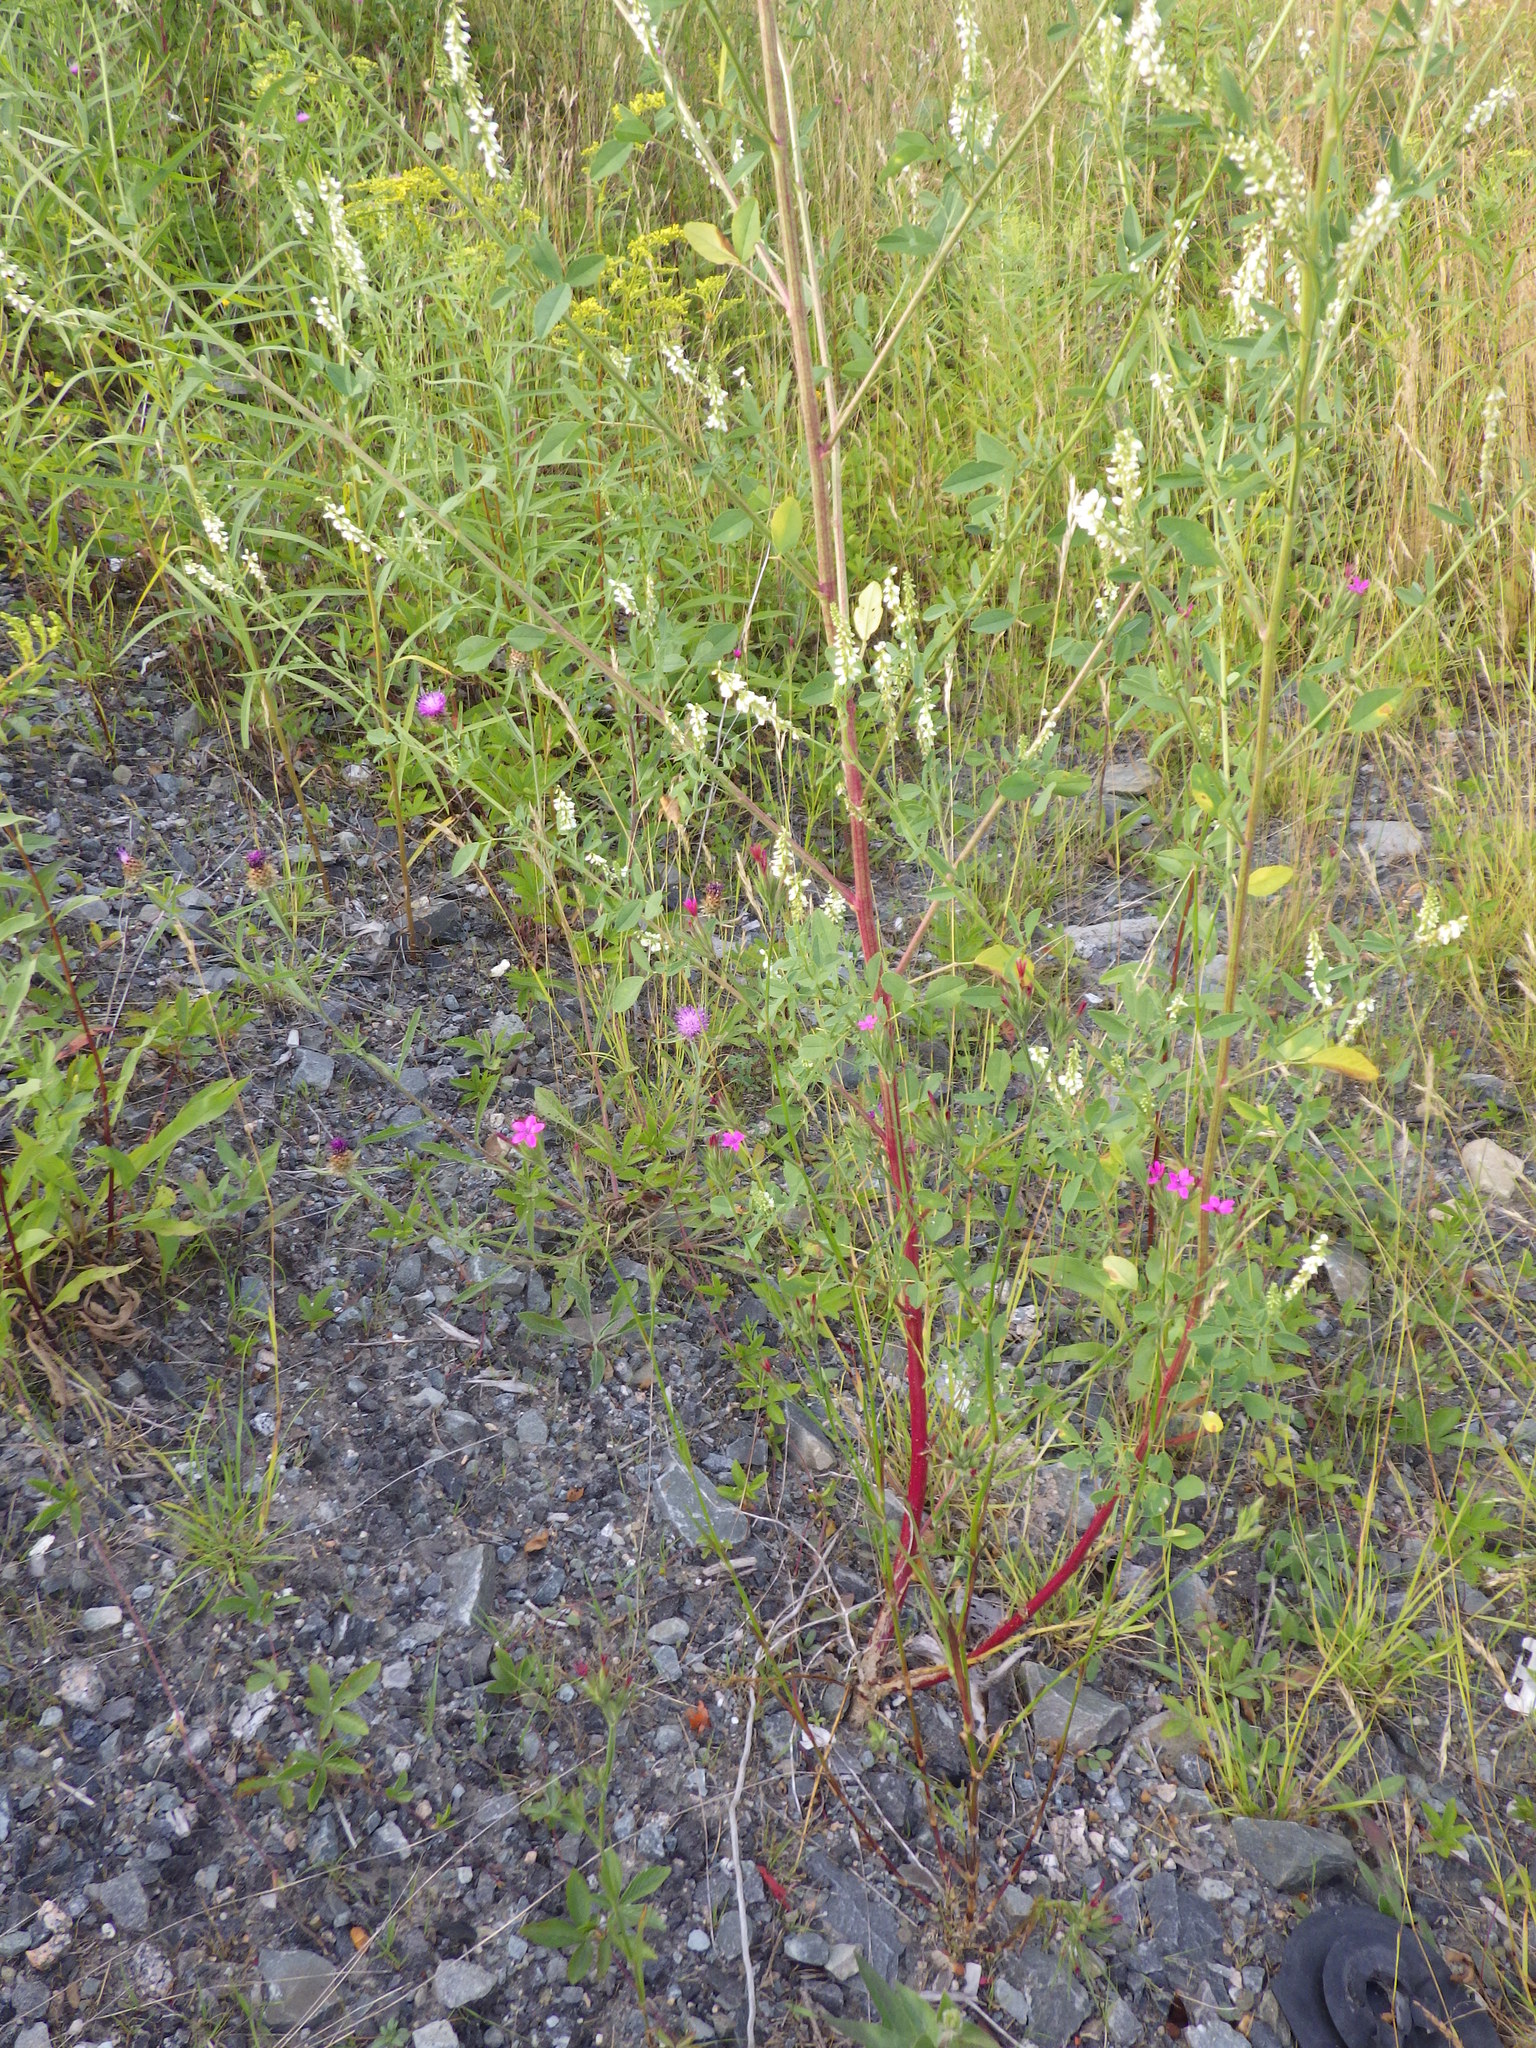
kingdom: Plantae
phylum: Tracheophyta
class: Magnoliopsida
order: Caryophyllales
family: Caryophyllaceae
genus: Dianthus
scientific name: Dianthus armeria
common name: Deptford pink
